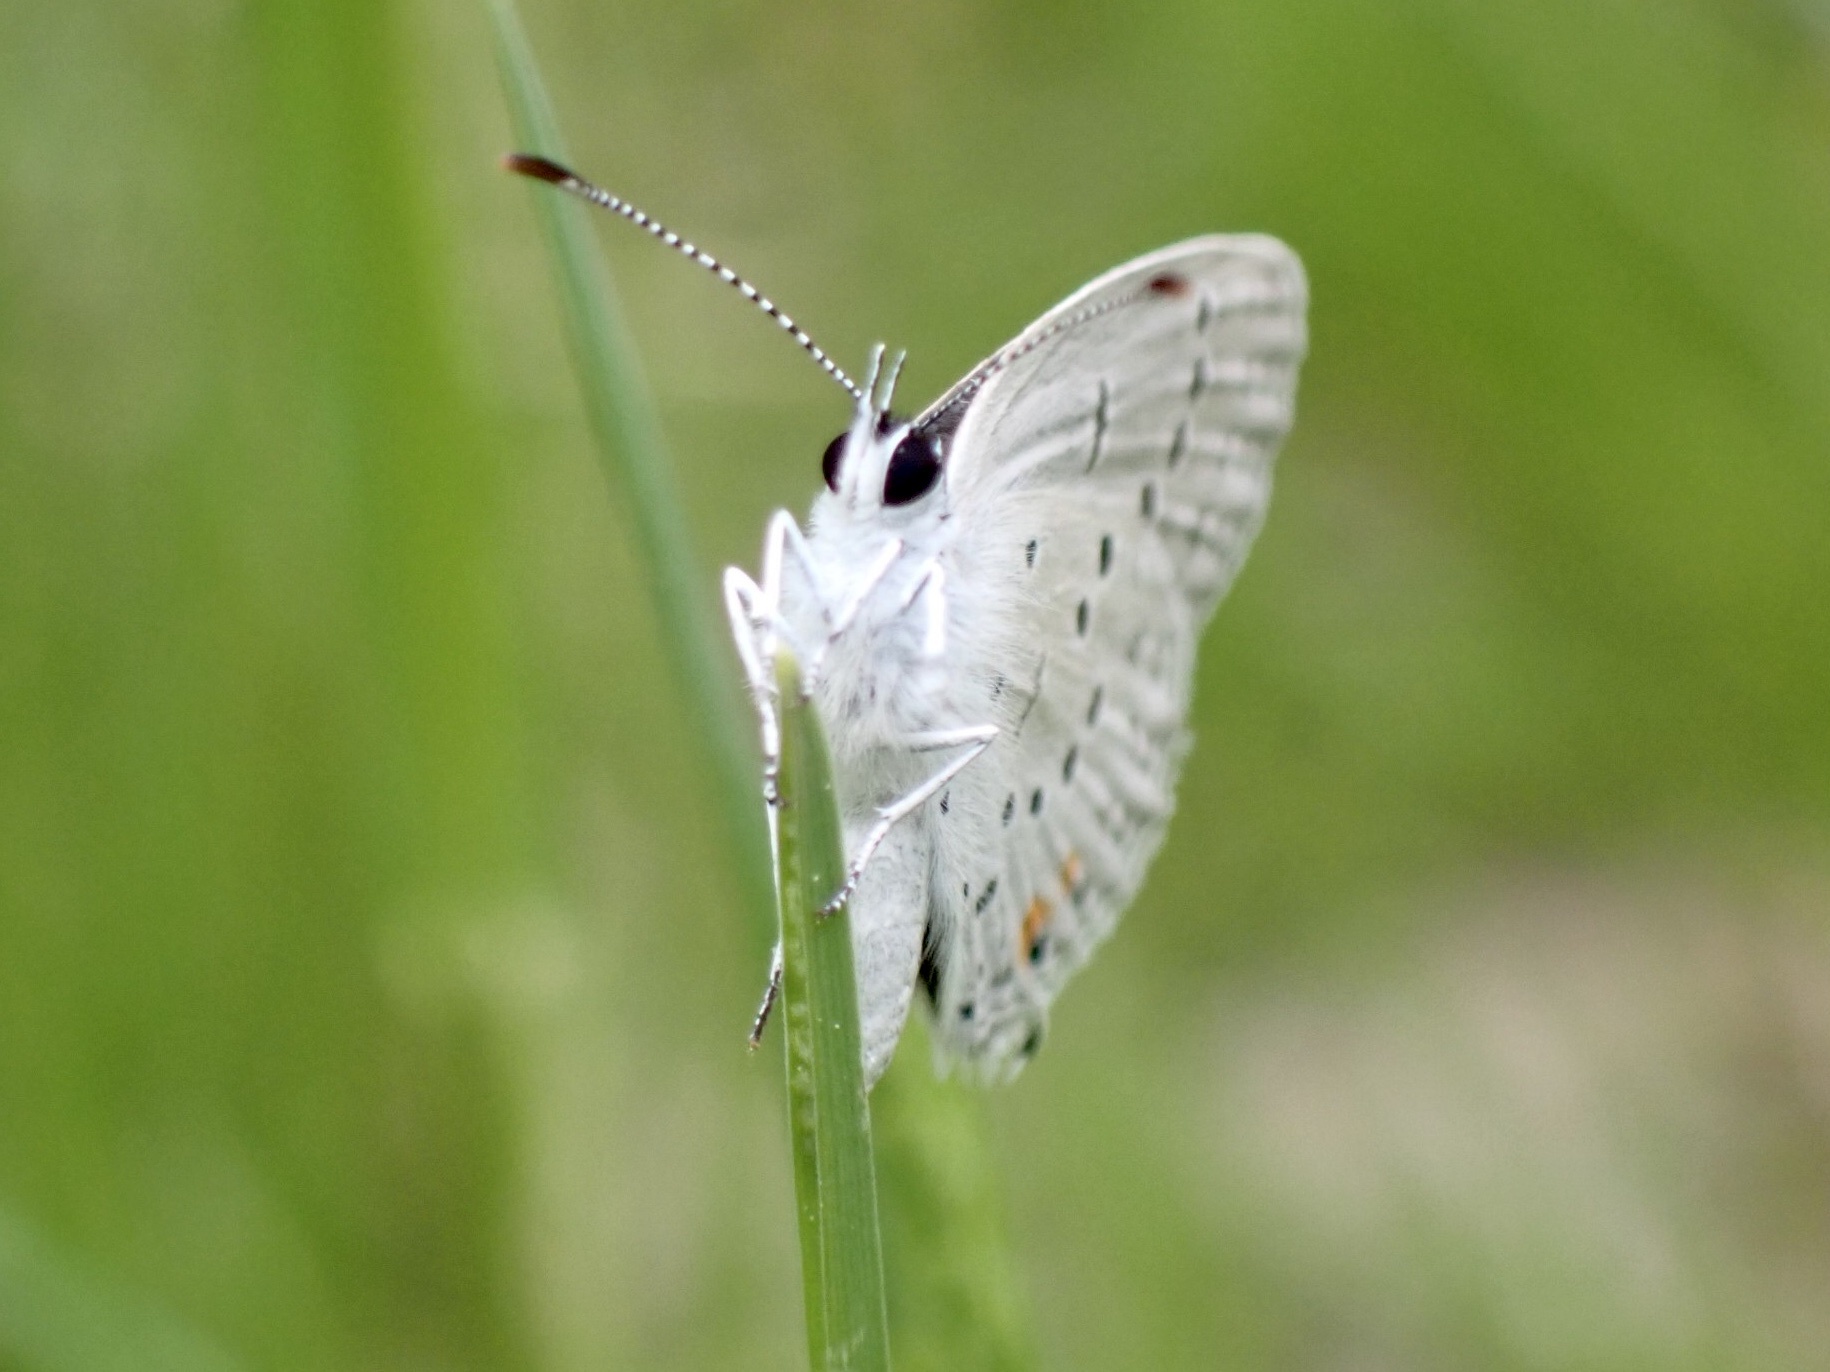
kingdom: Animalia
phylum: Arthropoda
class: Insecta
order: Lepidoptera
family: Lycaenidae
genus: Elkalyce
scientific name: Elkalyce comyntas
